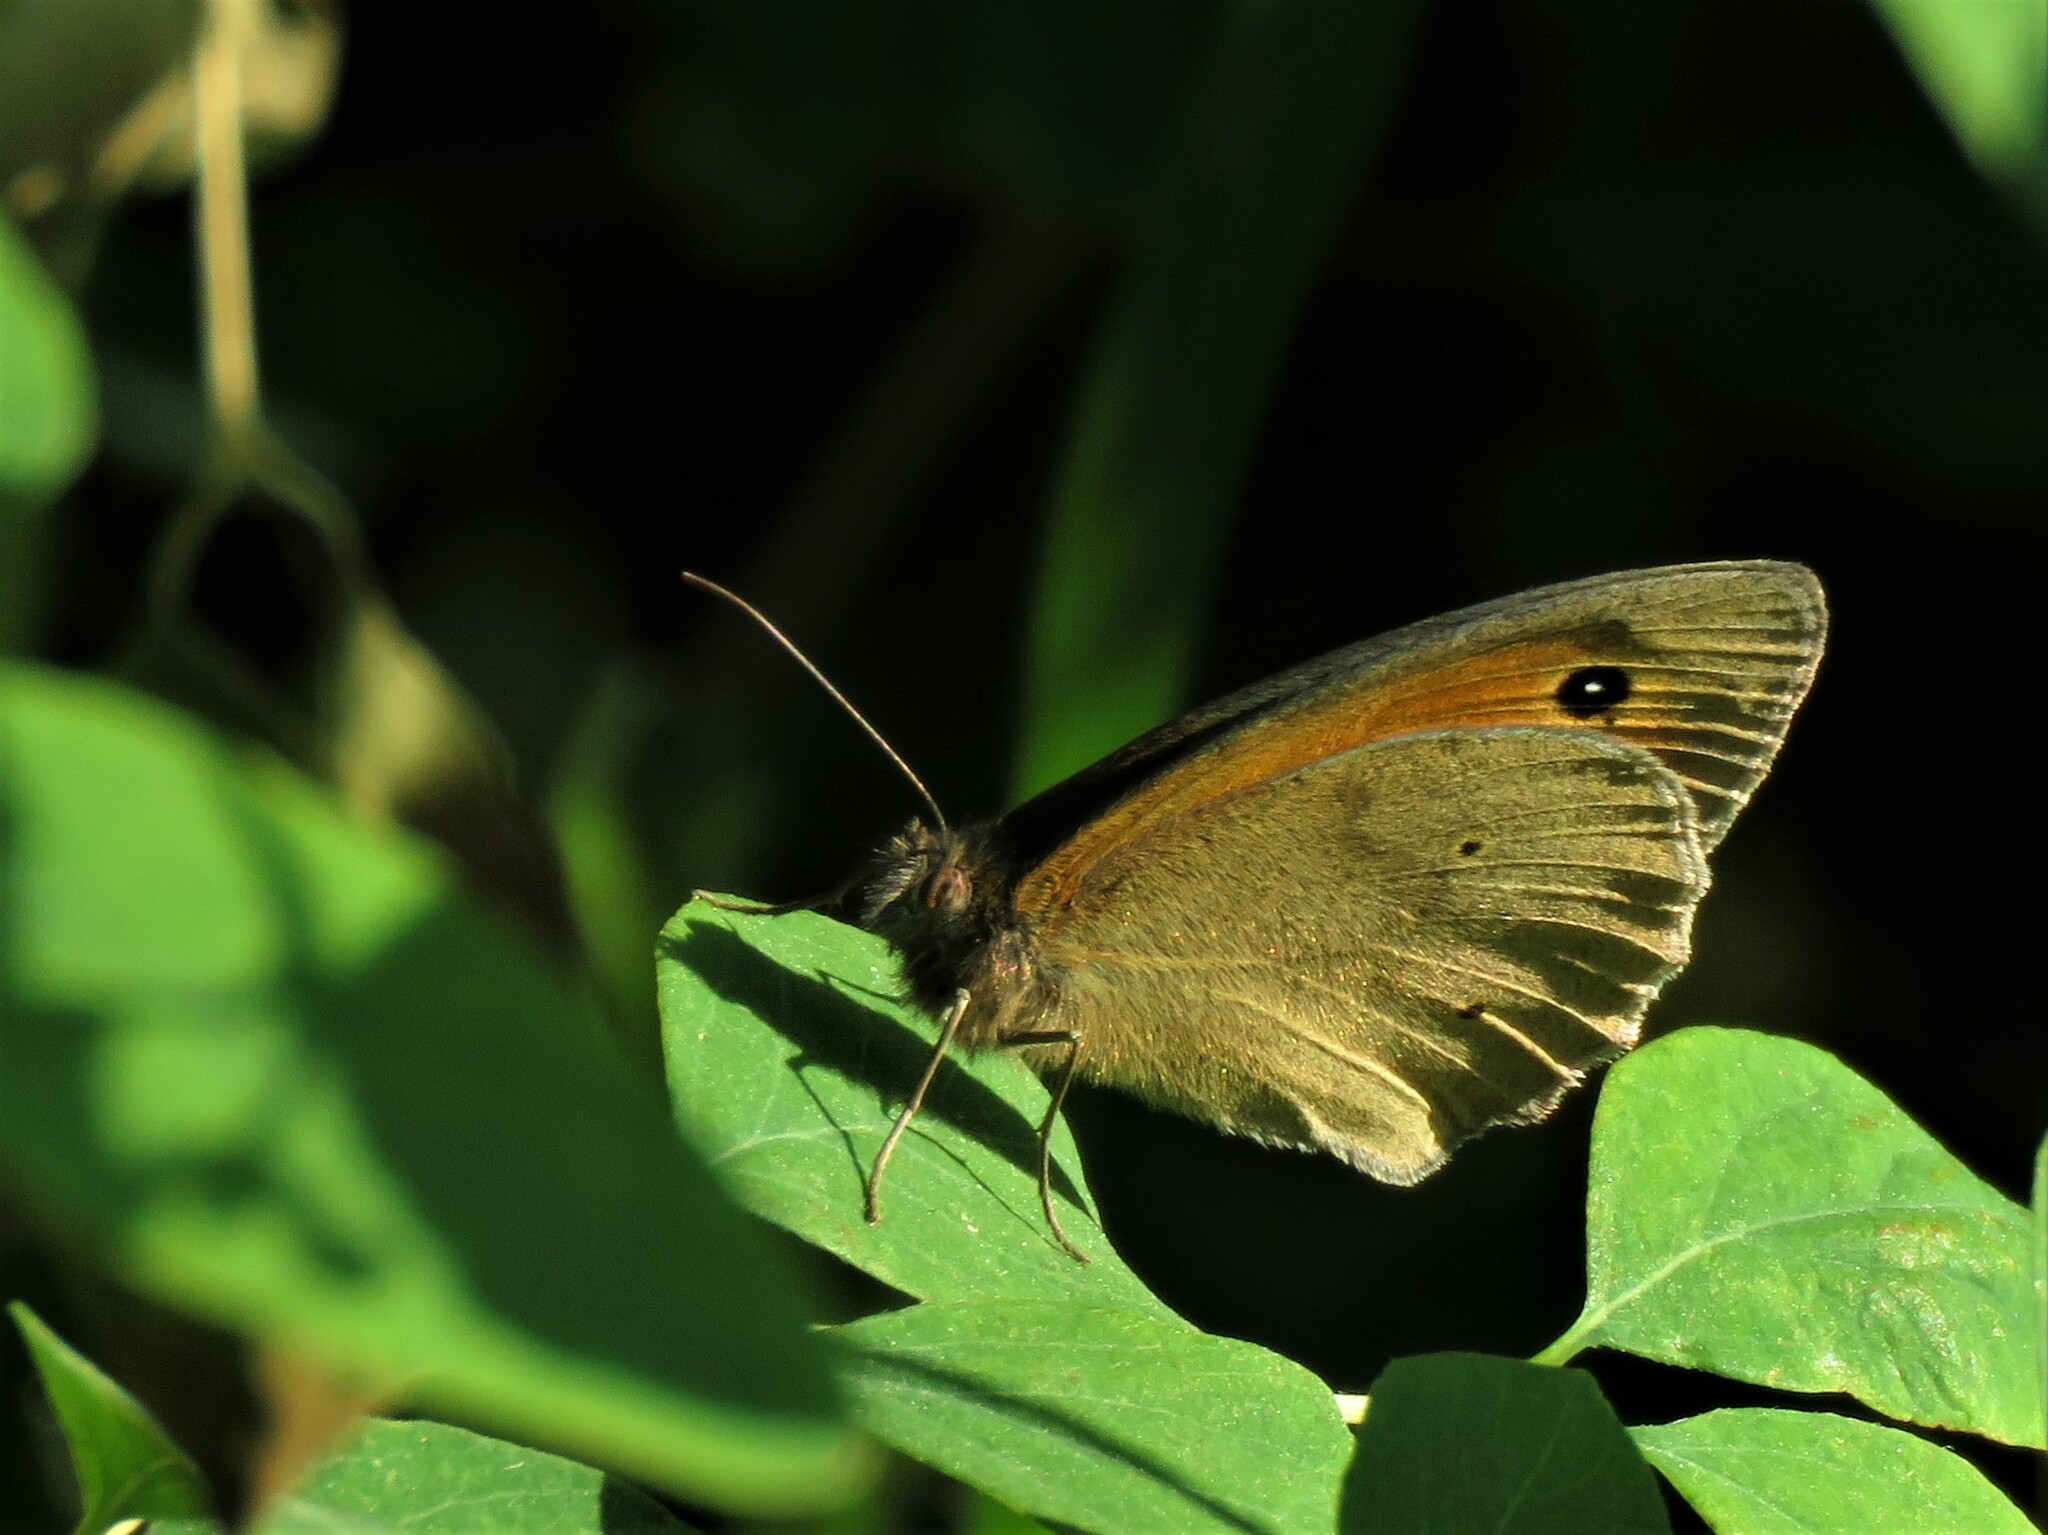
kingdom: Animalia
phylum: Arthropoda
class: Insecta
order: Lepidoptera
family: Nymphalidae
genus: Maniola
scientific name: Maniola jurtina
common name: Meadow brown
